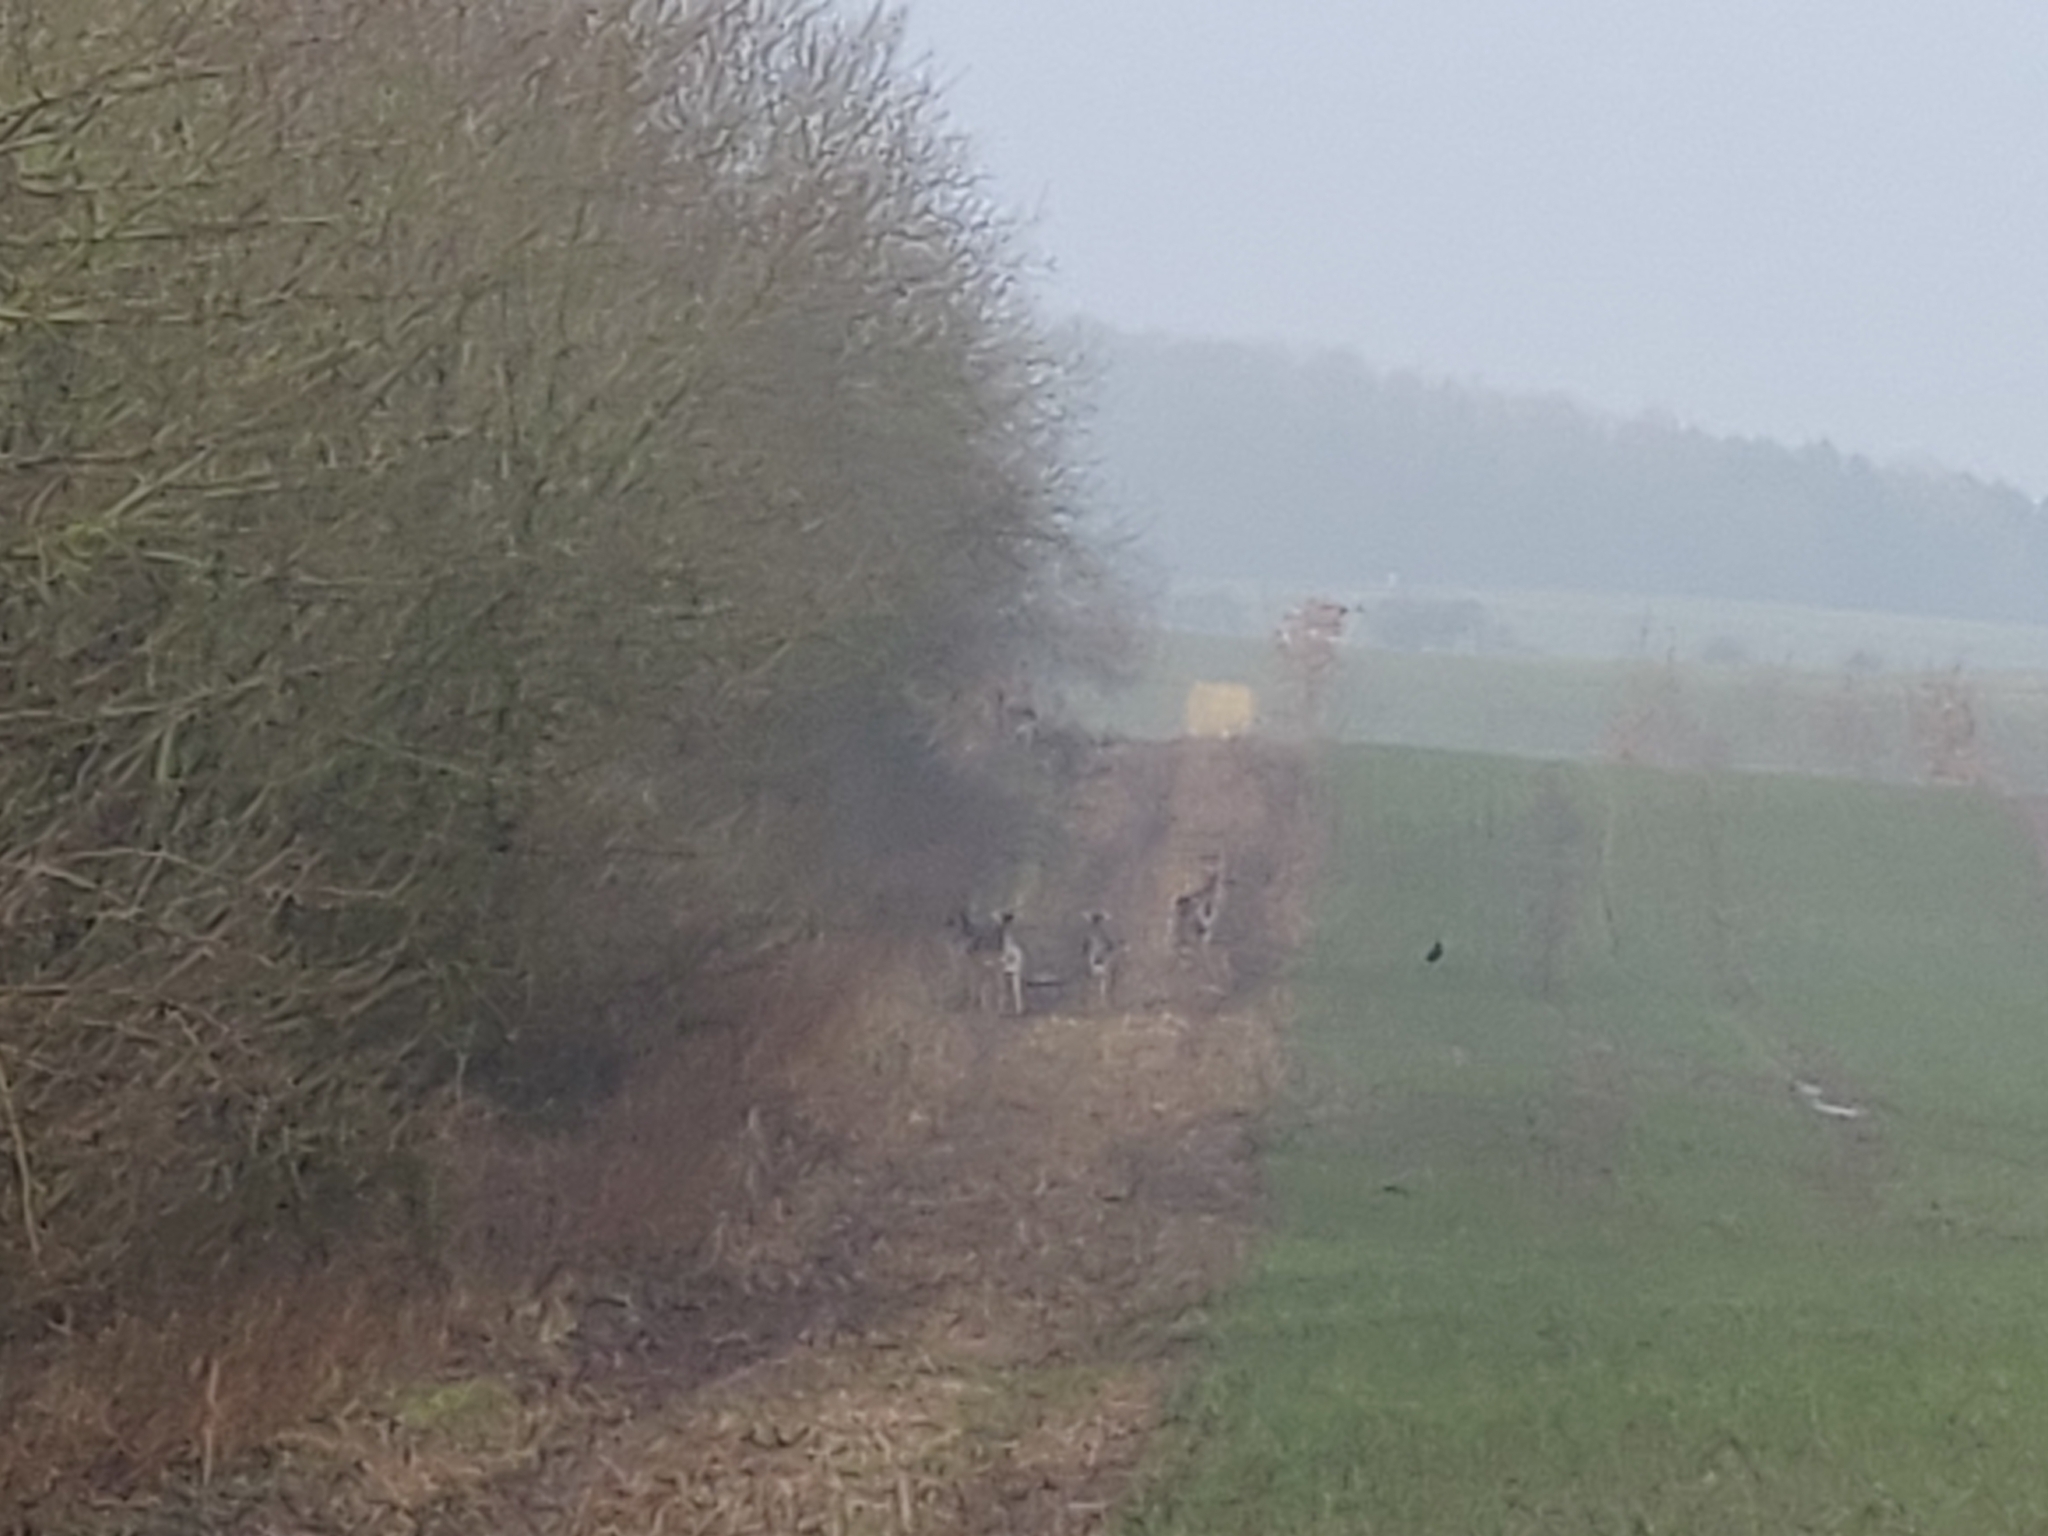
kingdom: Animalia
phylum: Chordata
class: Mammalia
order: Artiodactyla
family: Cervidae
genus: Dama
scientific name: Dama dama
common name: Fallow deer
